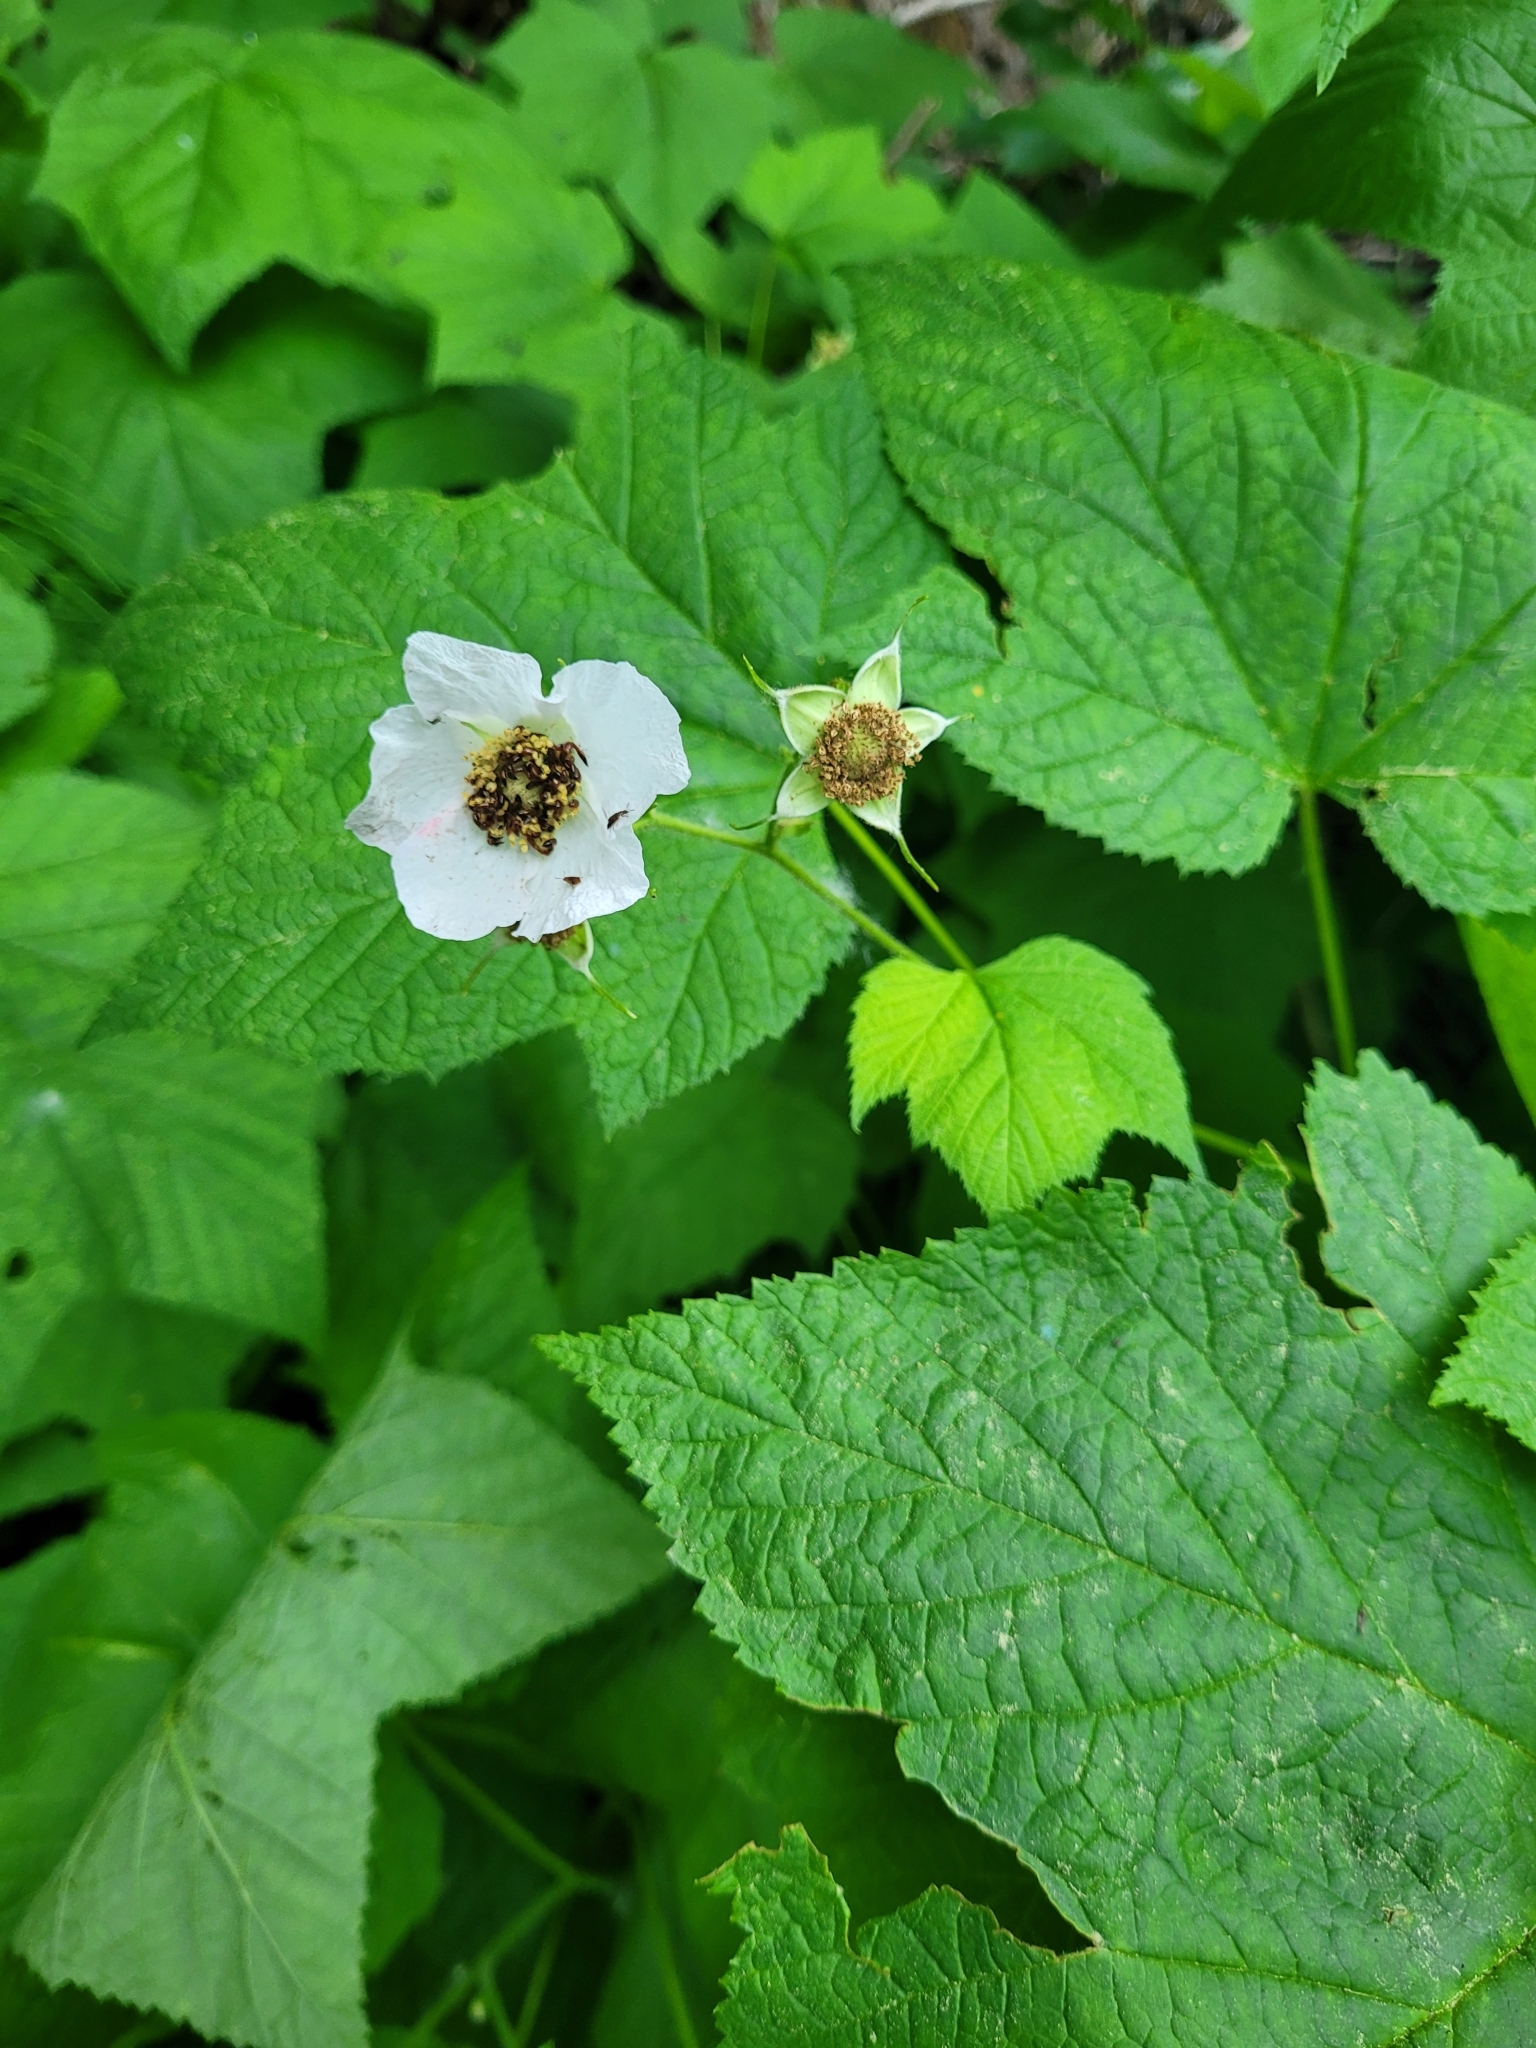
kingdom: Plantae
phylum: Tracheophyta
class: Magnoliopsida
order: Rosales
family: Rosaceae
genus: Rubus
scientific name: Rubus parviflorus
